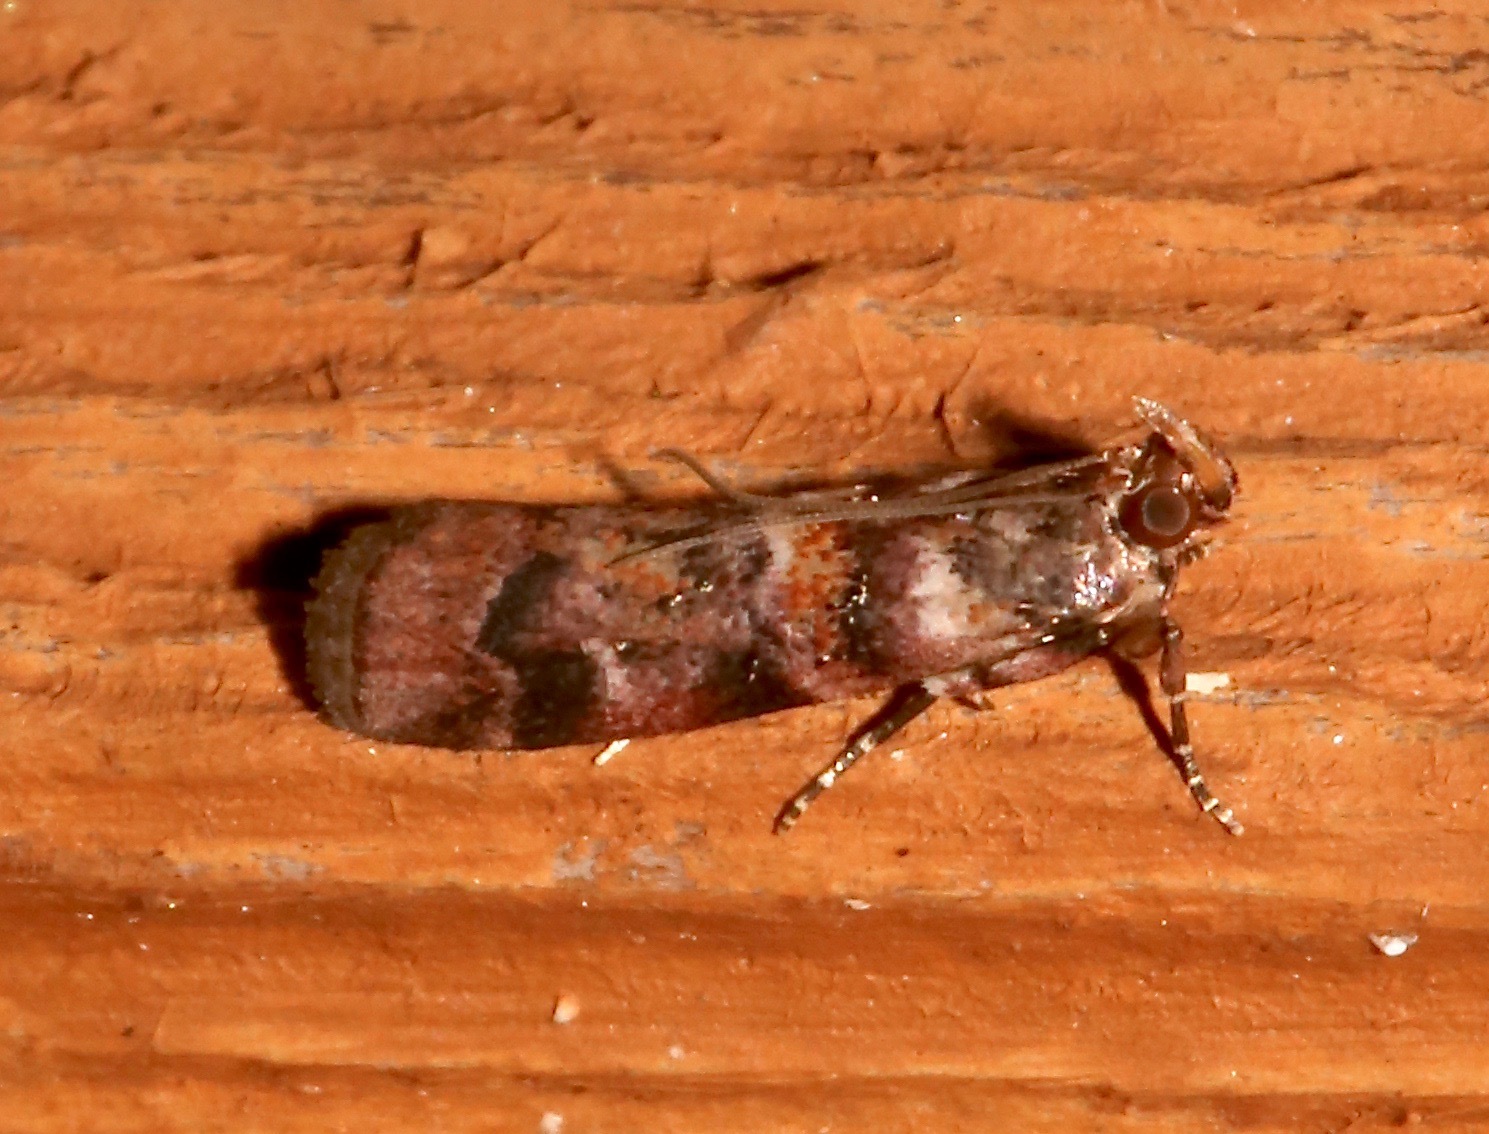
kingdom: Animalia
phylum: Arthropoda
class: Insecta
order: Lepidoptera
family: Pyralidae
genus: Dioryctria
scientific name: Dioryctria pygmaeella
